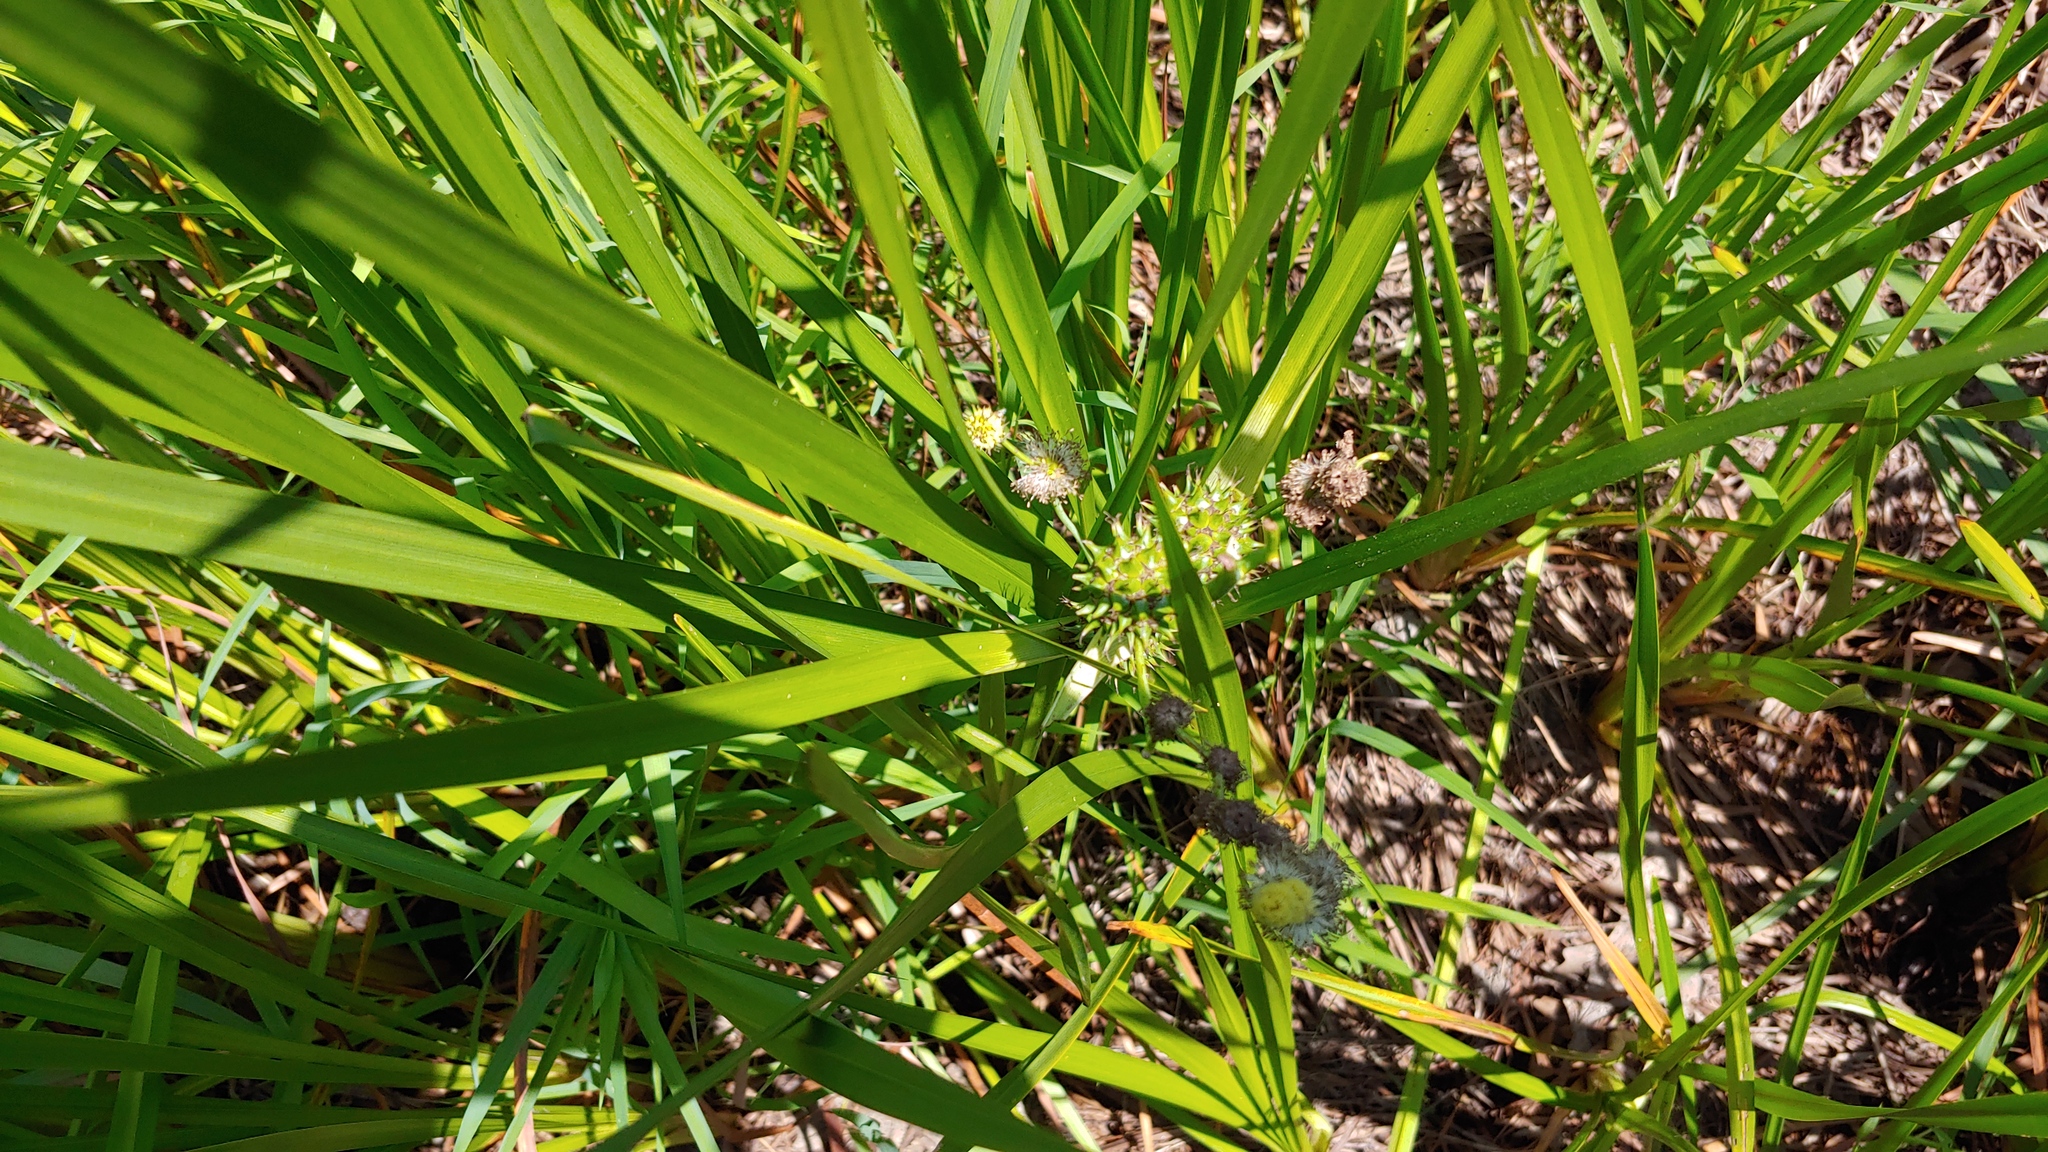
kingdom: Plantae
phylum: Tracheophyta
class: Liliopsida
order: Poales
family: Typhaceae
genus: Sparganium
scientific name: Sparganium eurycarpum
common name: Broad-fruited burreed
